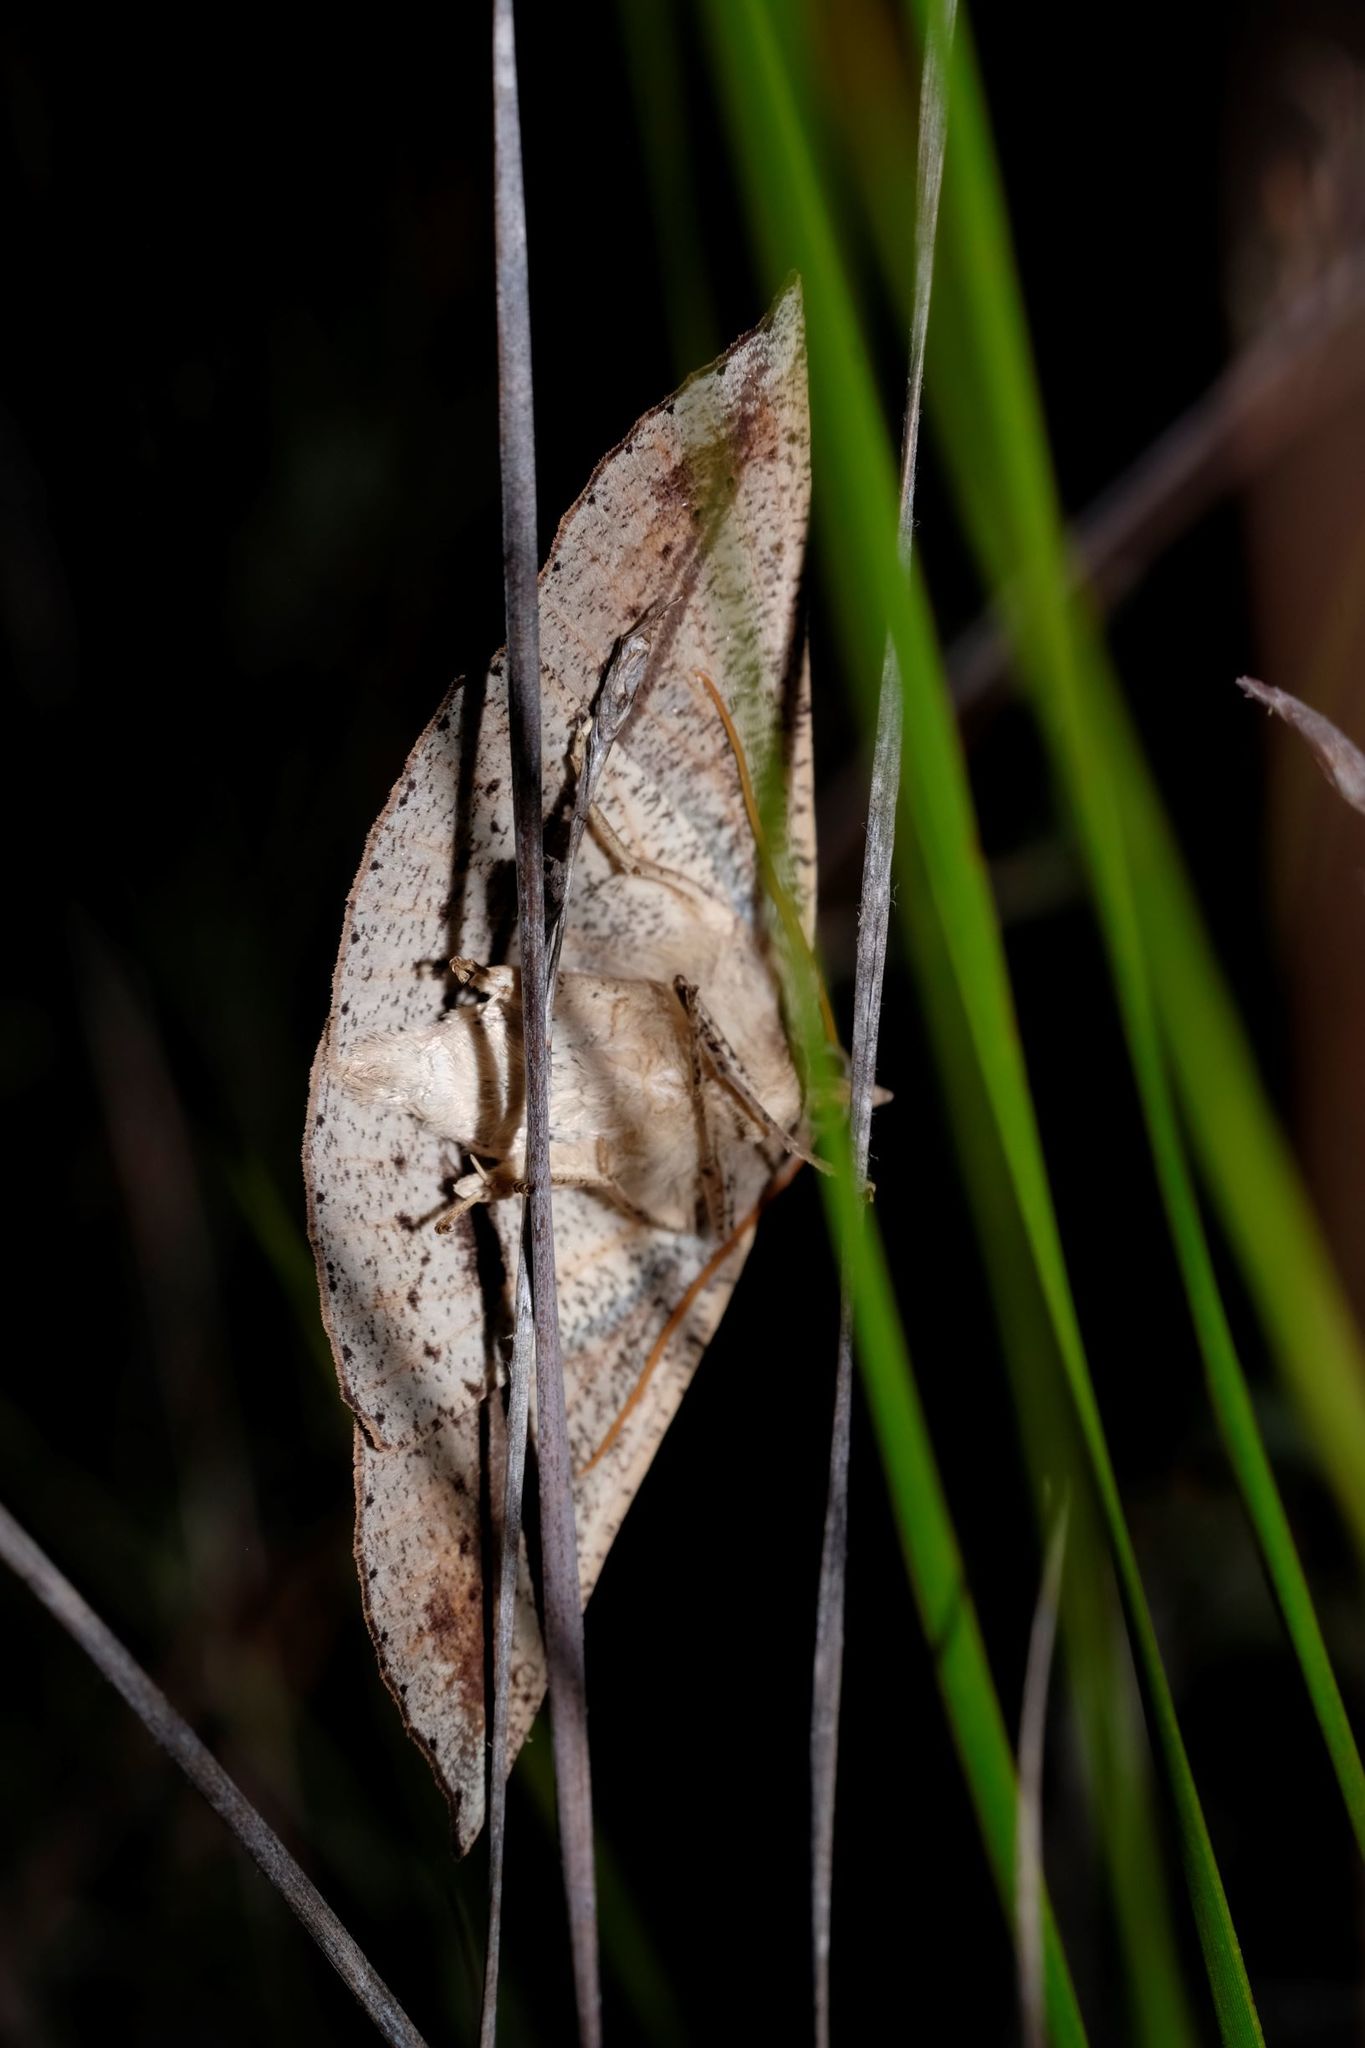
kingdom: Animalia
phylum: Arthropoda
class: Insecta
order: Lepidoptera
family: Geometridae
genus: Idiodes
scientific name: Idiodes siculoides
